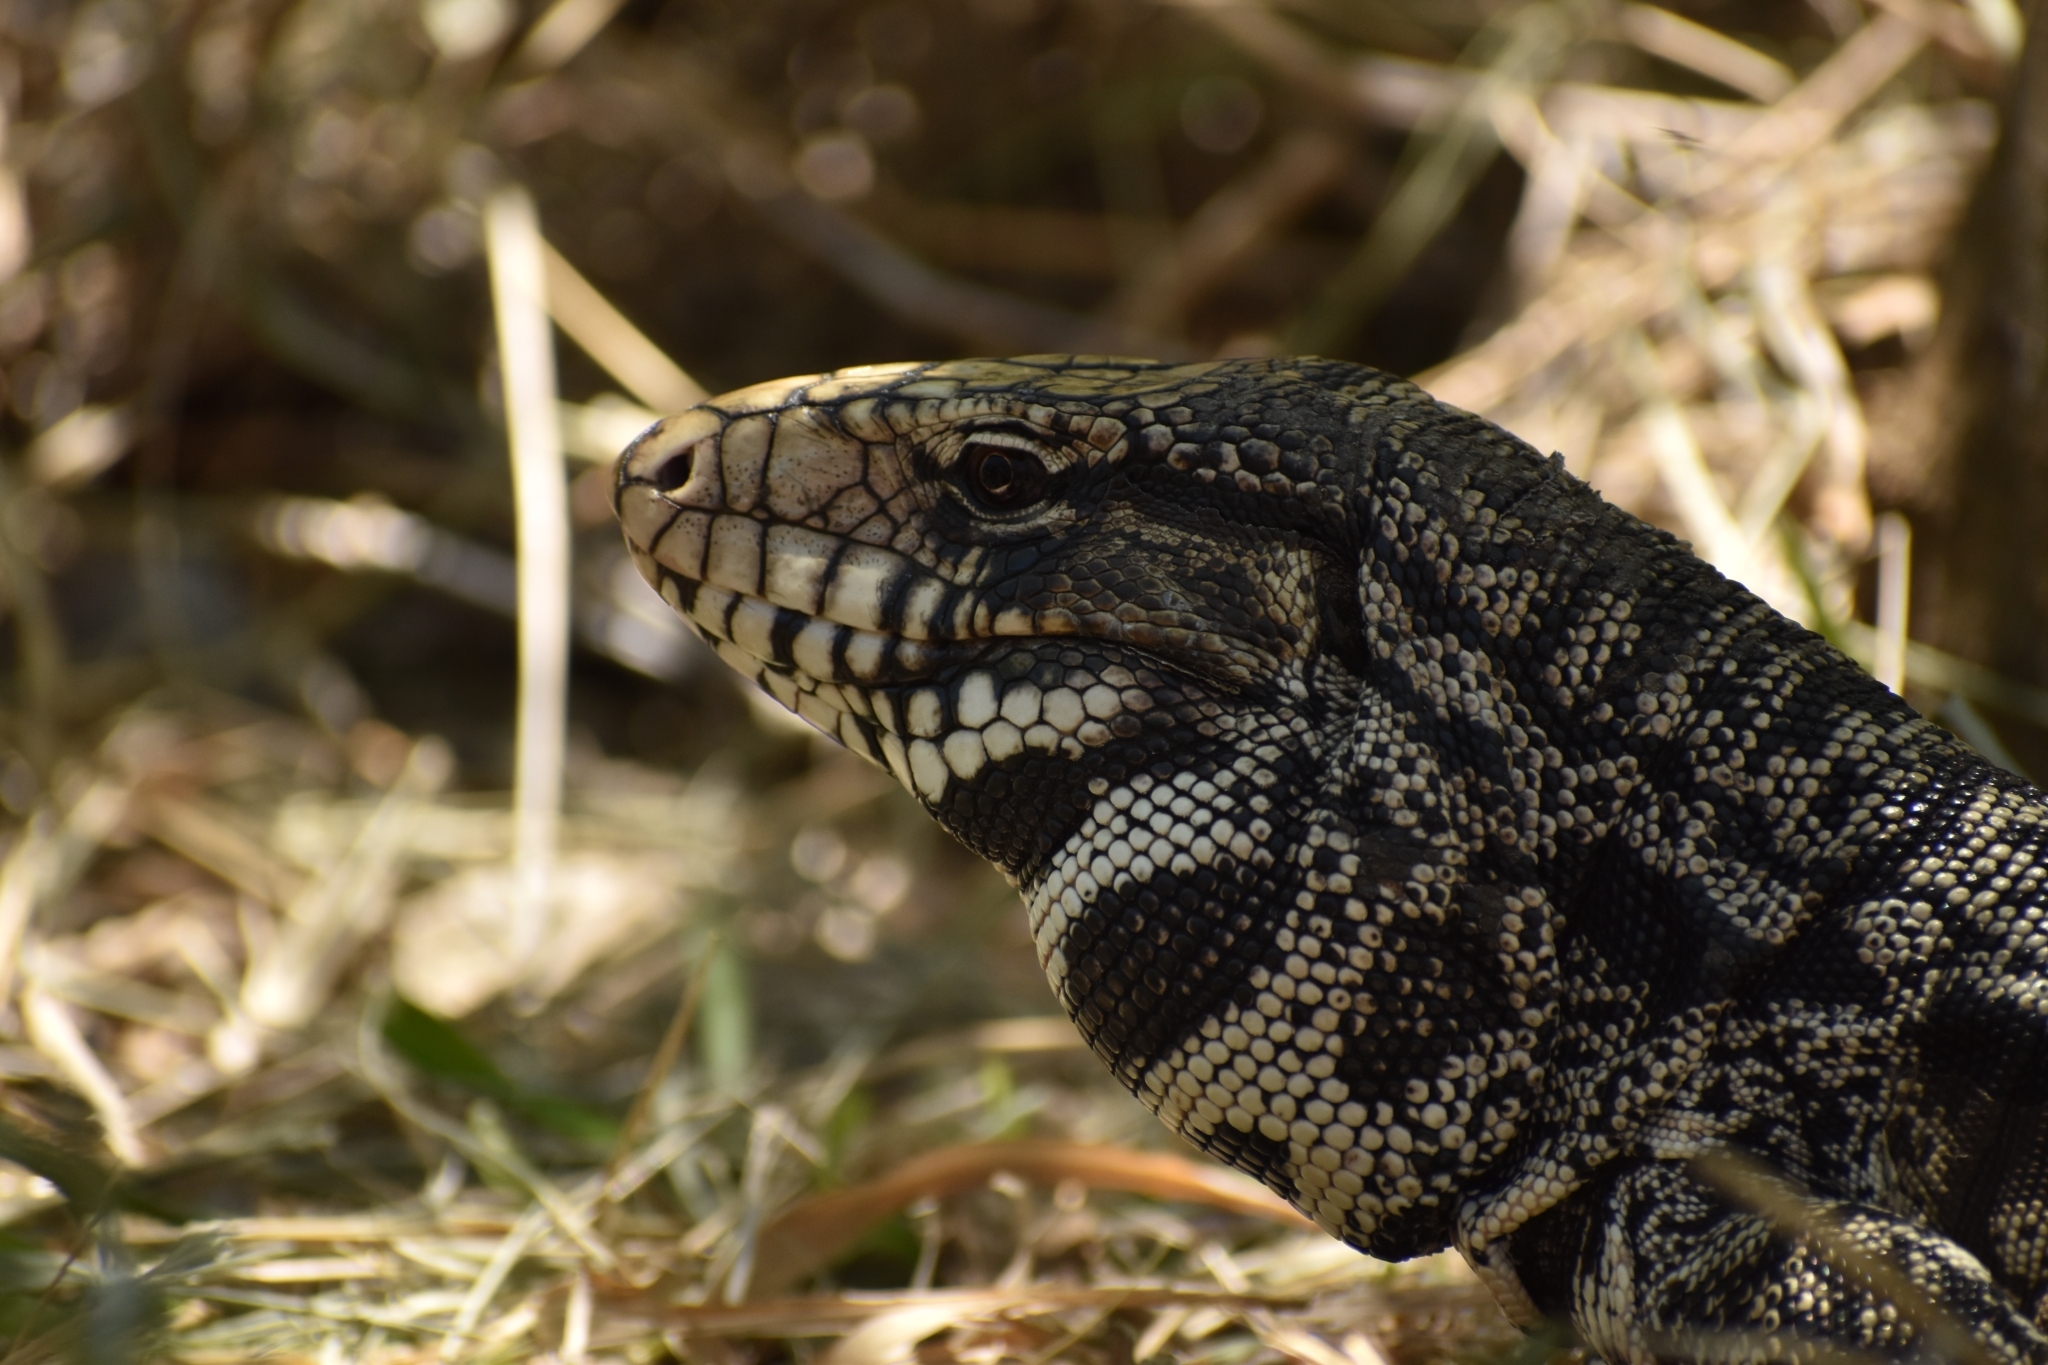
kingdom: Animalia
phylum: Chordata
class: Squamata
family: Teiidae
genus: Salvator
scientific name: Salvator merianae
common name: Argentine black and white tegu
